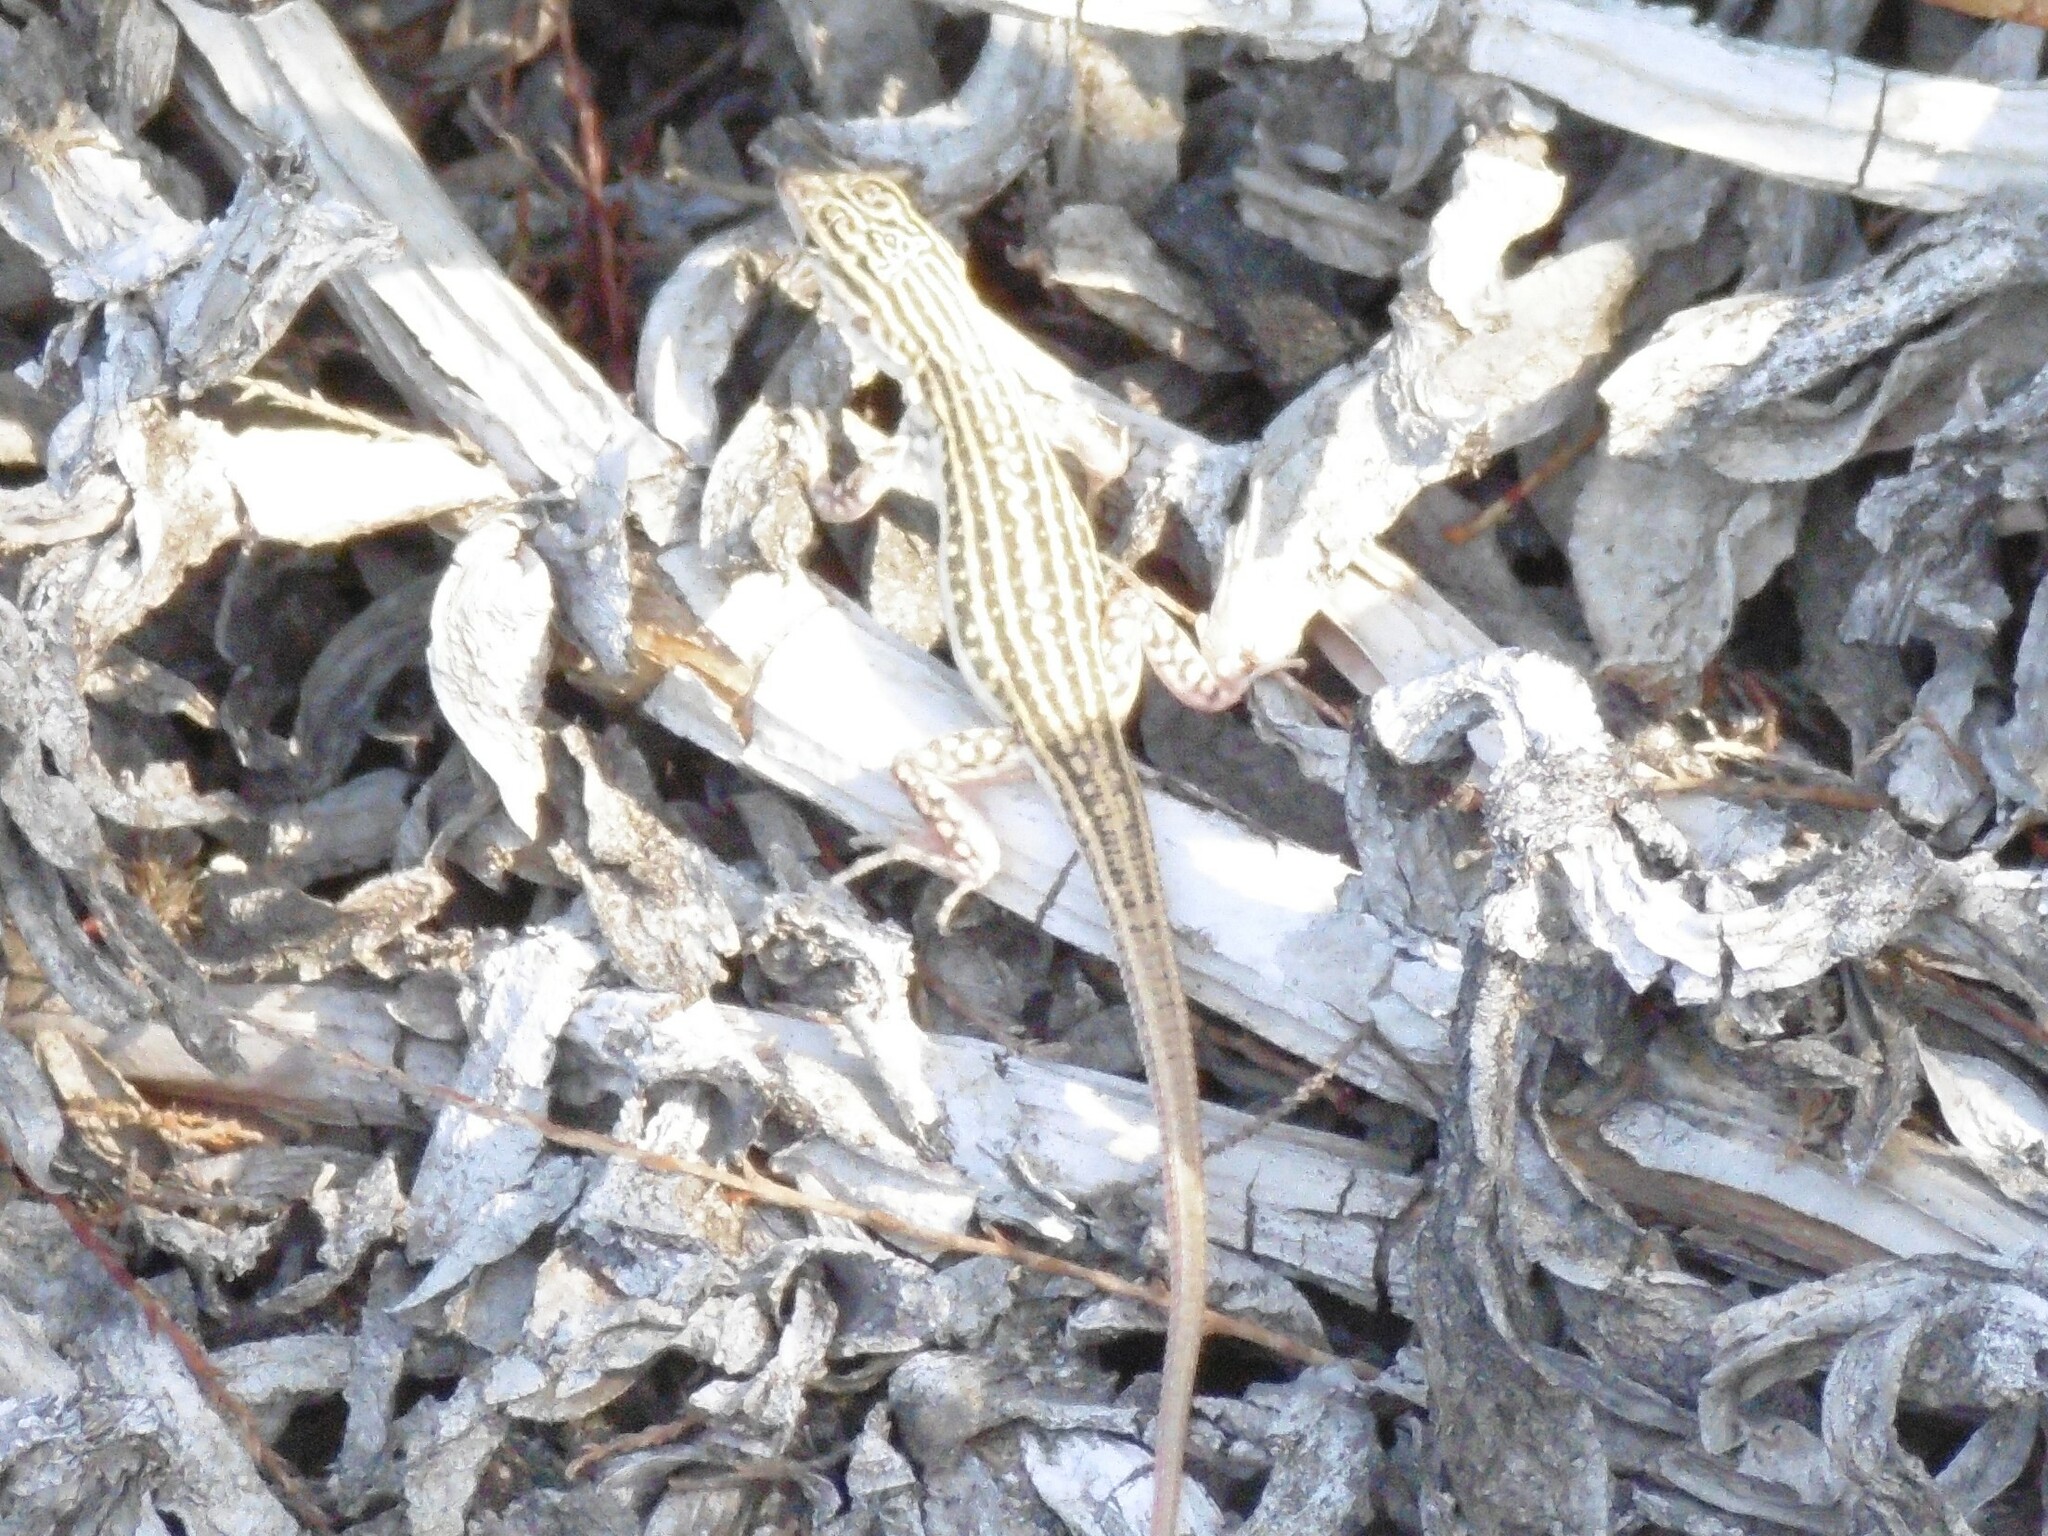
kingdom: Animalia
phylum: Chordata
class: Squamata
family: Lacertidae
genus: Acanthodactylus
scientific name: Acanthodactylus erythrurus
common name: Spiny-footed lizard
